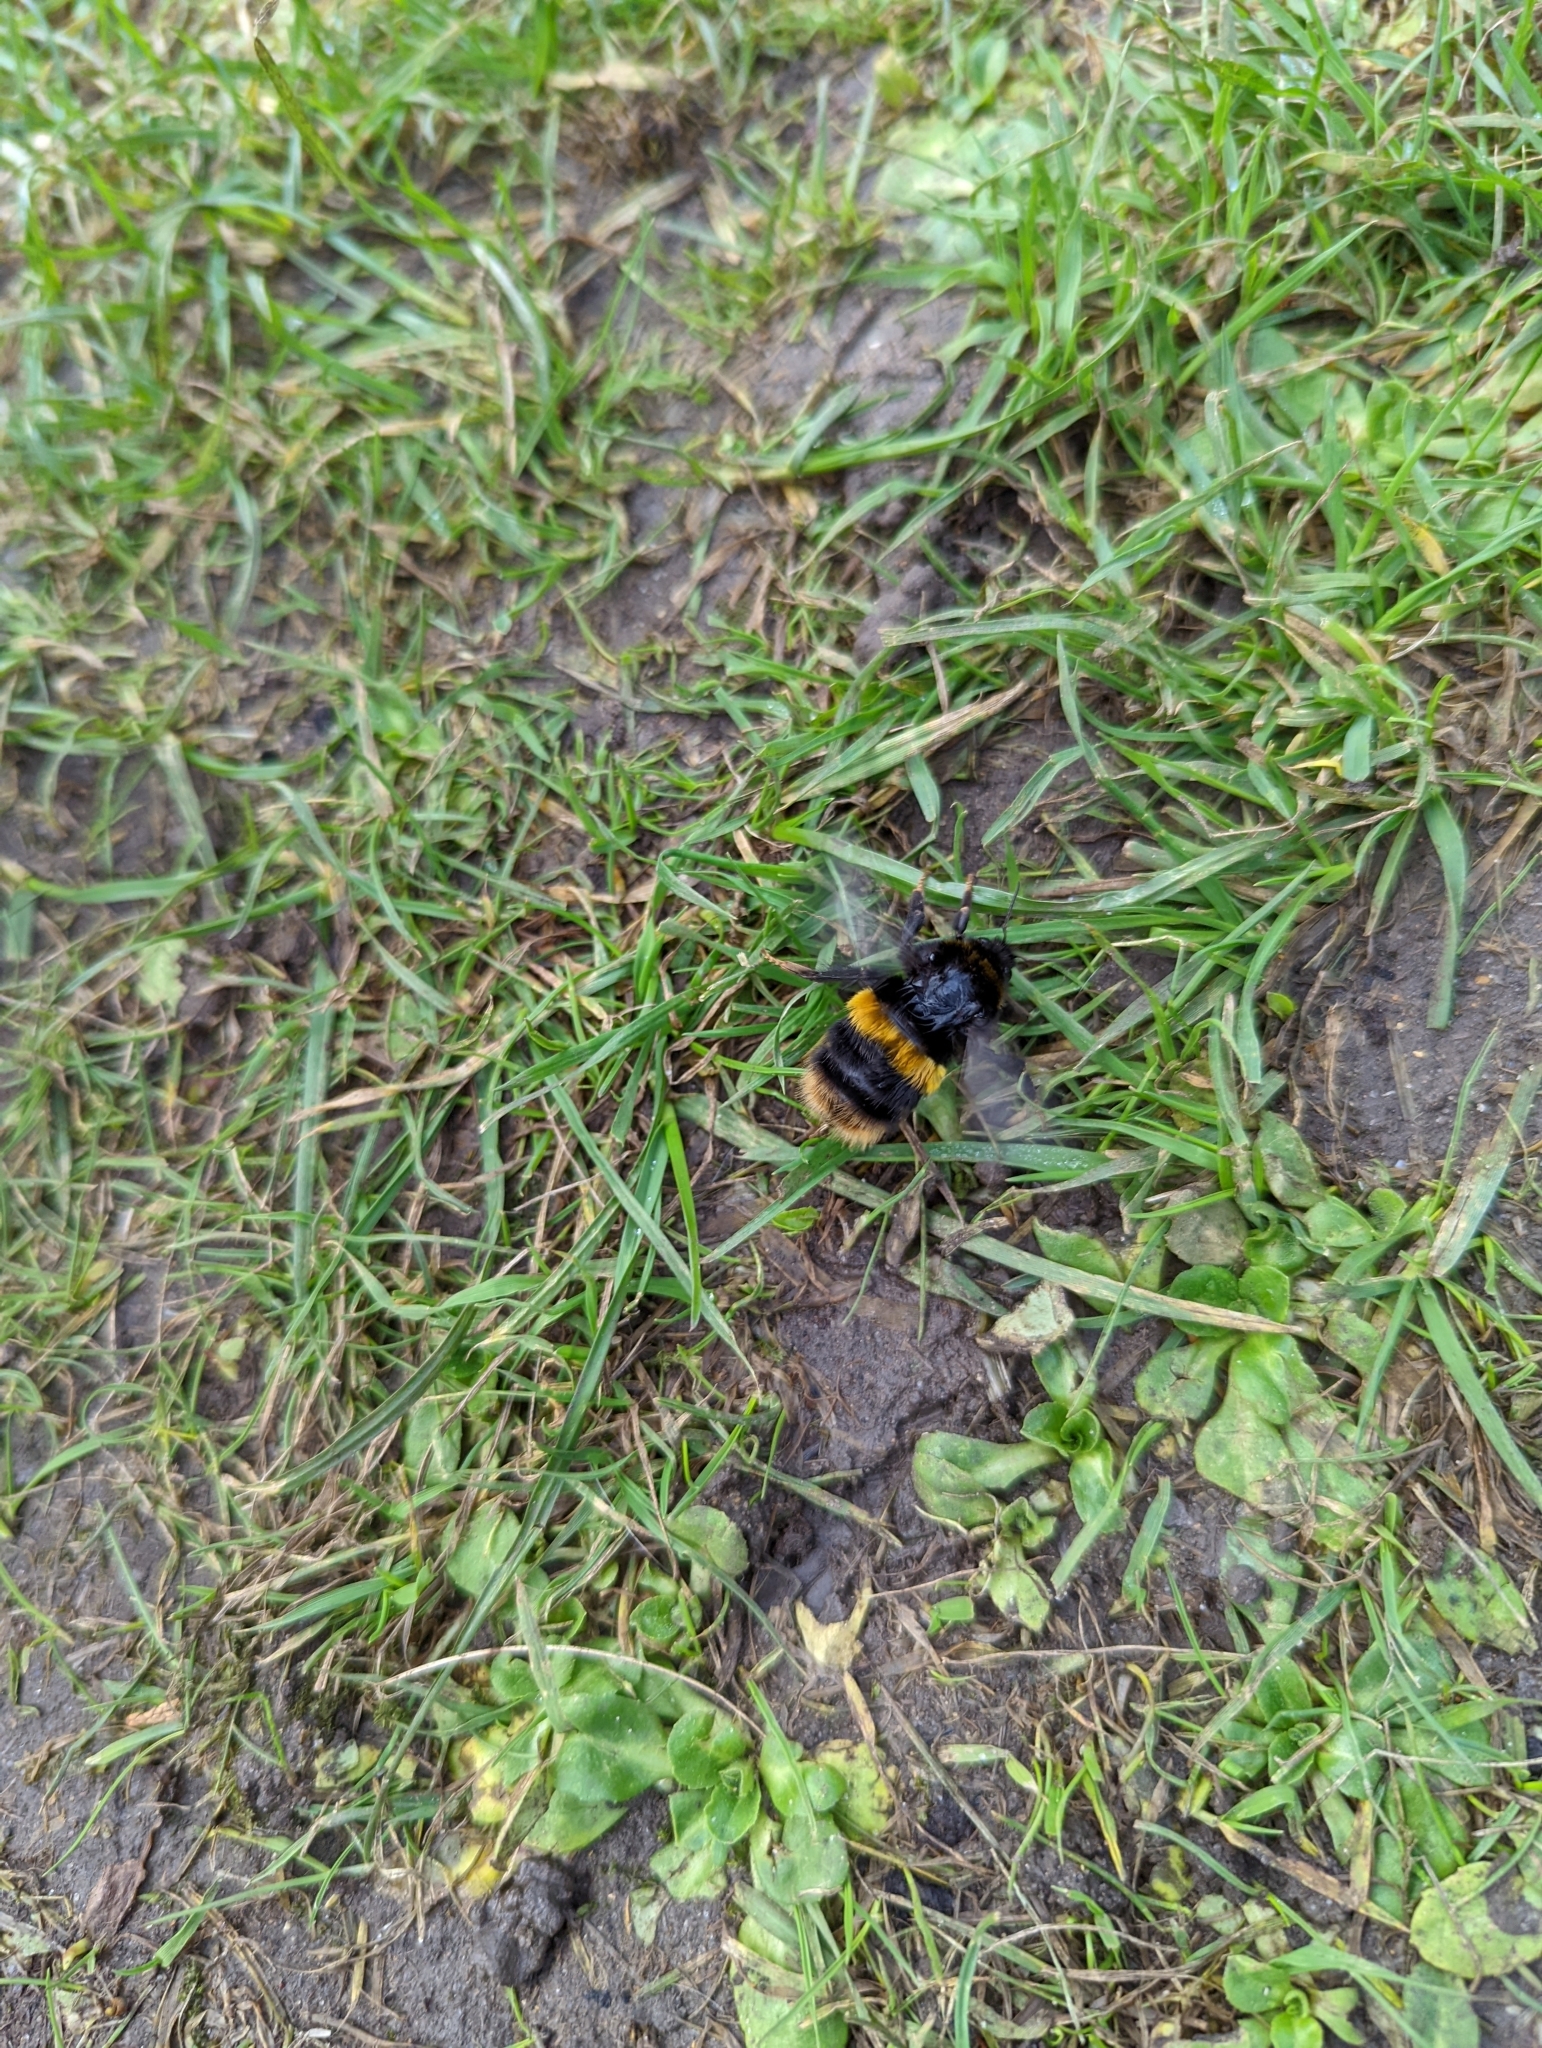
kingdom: Animalia
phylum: Arthropoda
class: Insecta
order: Hymenoptera
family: Apidae
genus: Bombus
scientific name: Bombus terrestris
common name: Buff-tailed bumblebee
